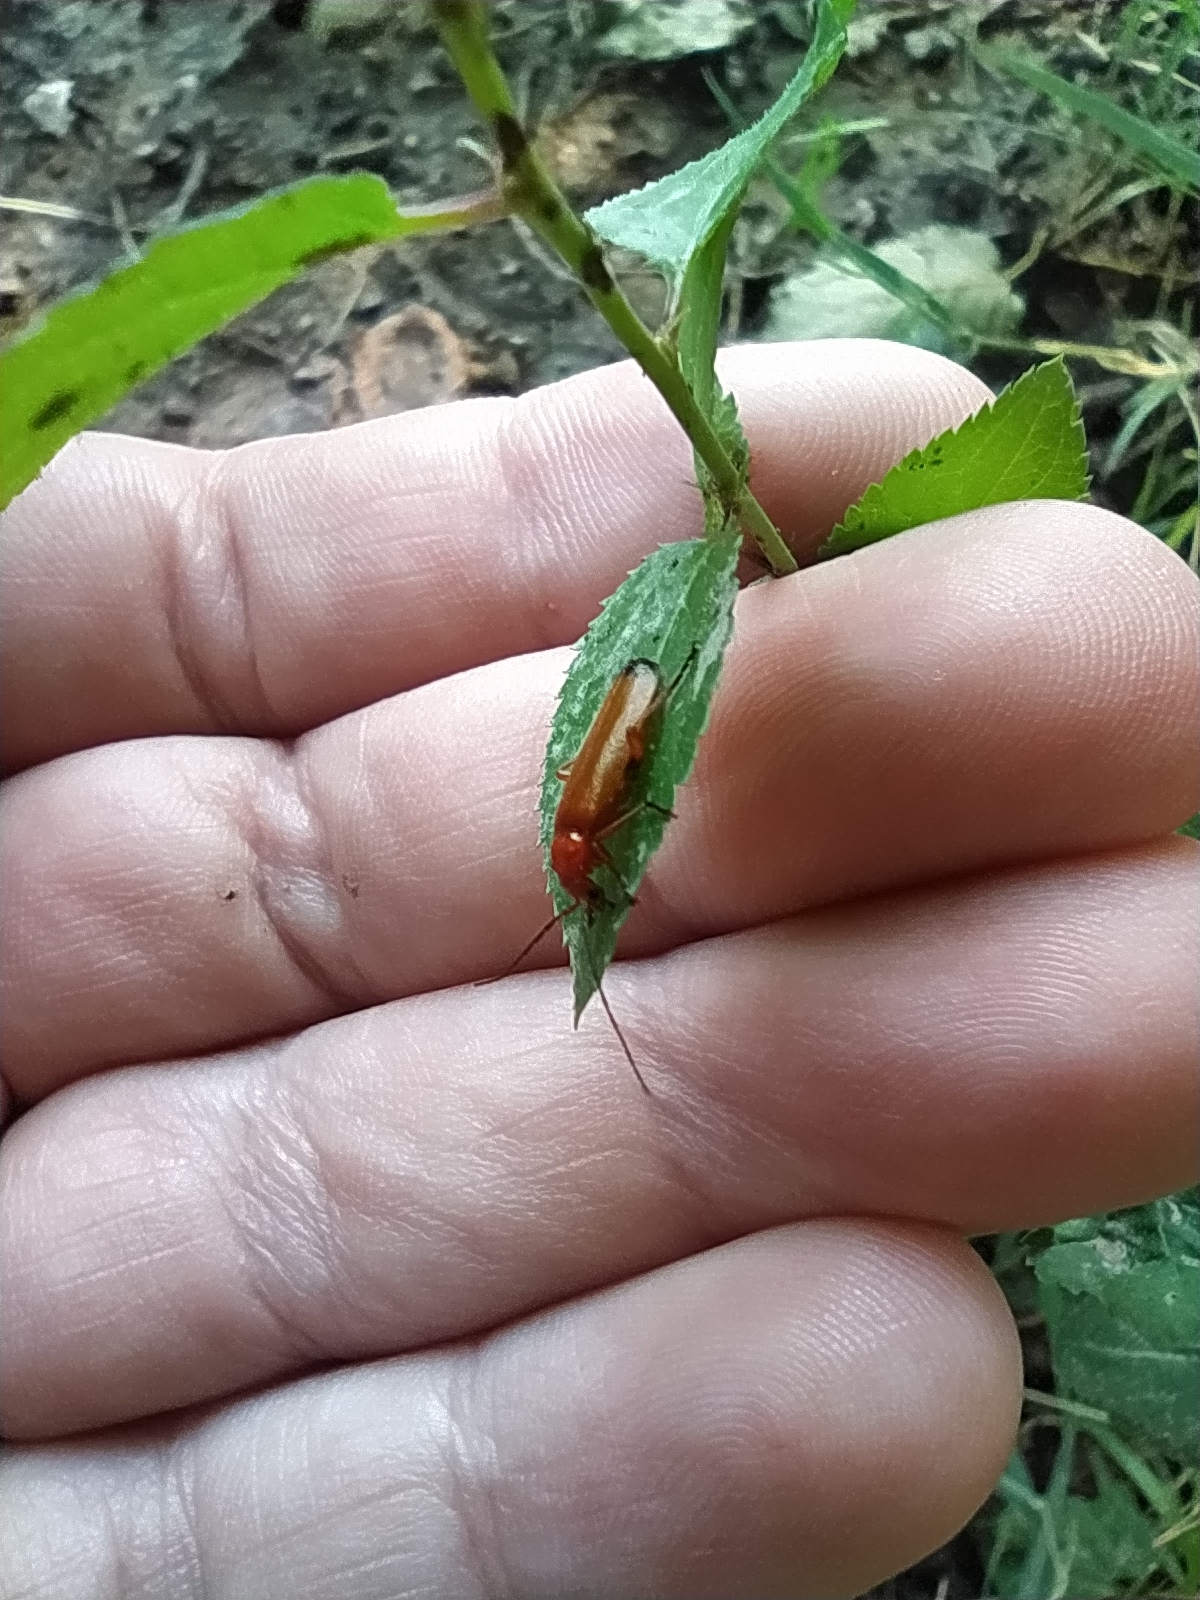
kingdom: Animalia
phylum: Arthropoda
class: Insecta
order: Coleoptera
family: Cantharidae
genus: Rhagonycha
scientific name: Rhagonycha fulva
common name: Common red soldier beetle
